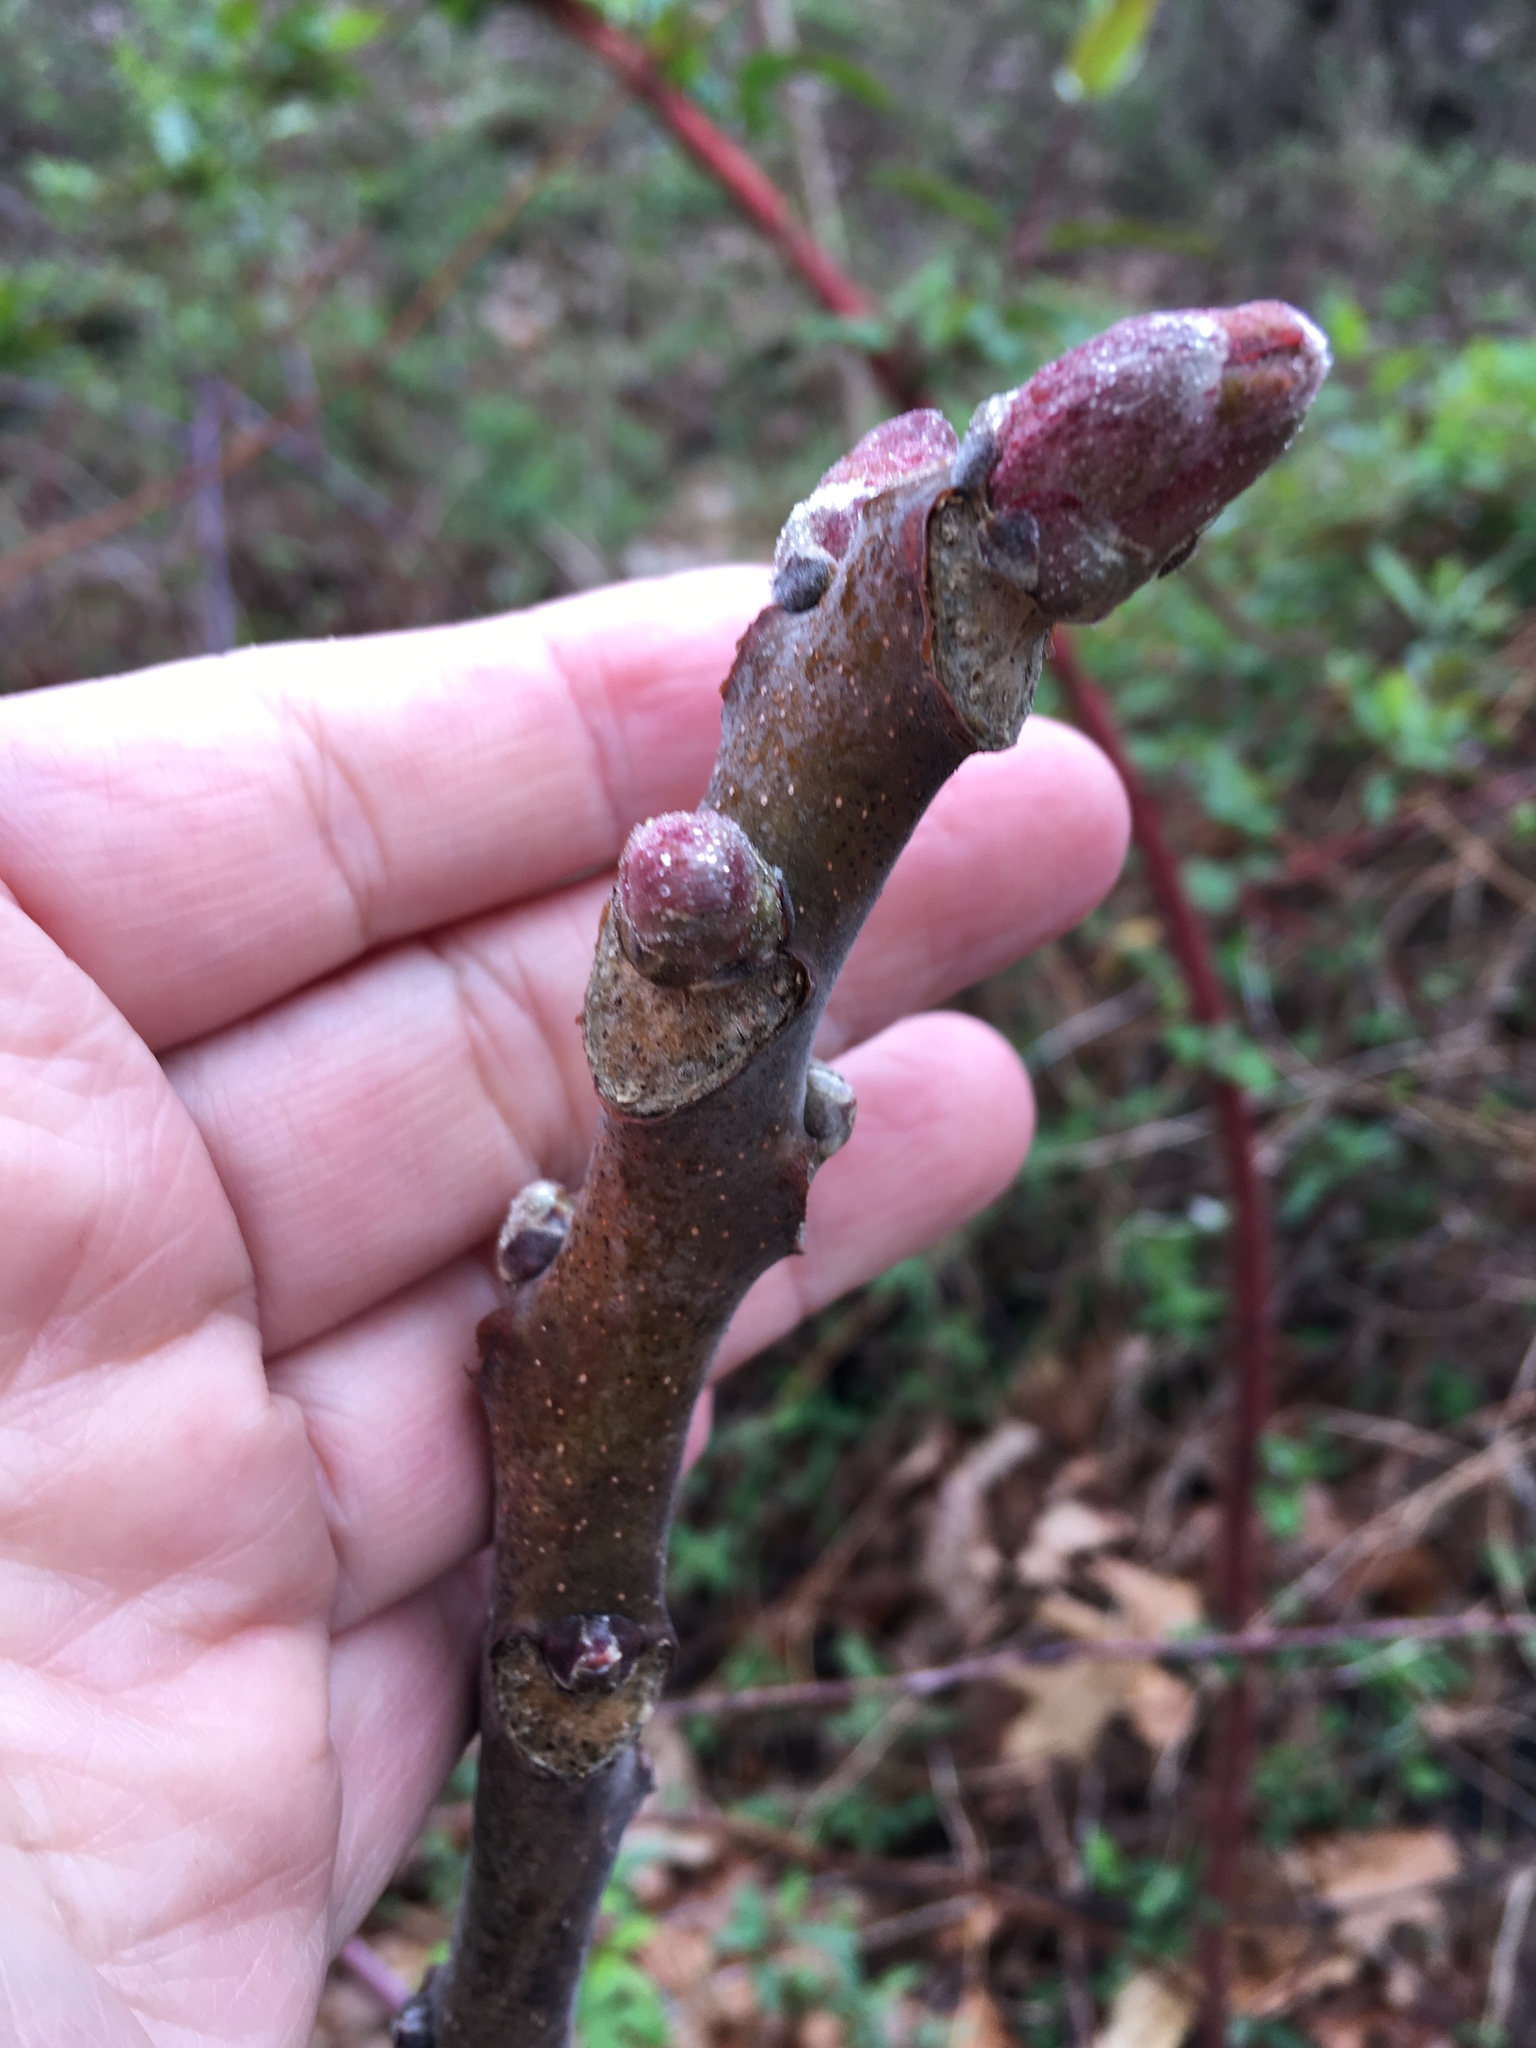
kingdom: Plantae
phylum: Tracheophyta
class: Magnoliopsida
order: Sapindales
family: Simaroubaceae
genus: Ailanthus
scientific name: Ailanthus altissima
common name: Tree-of-heaven
